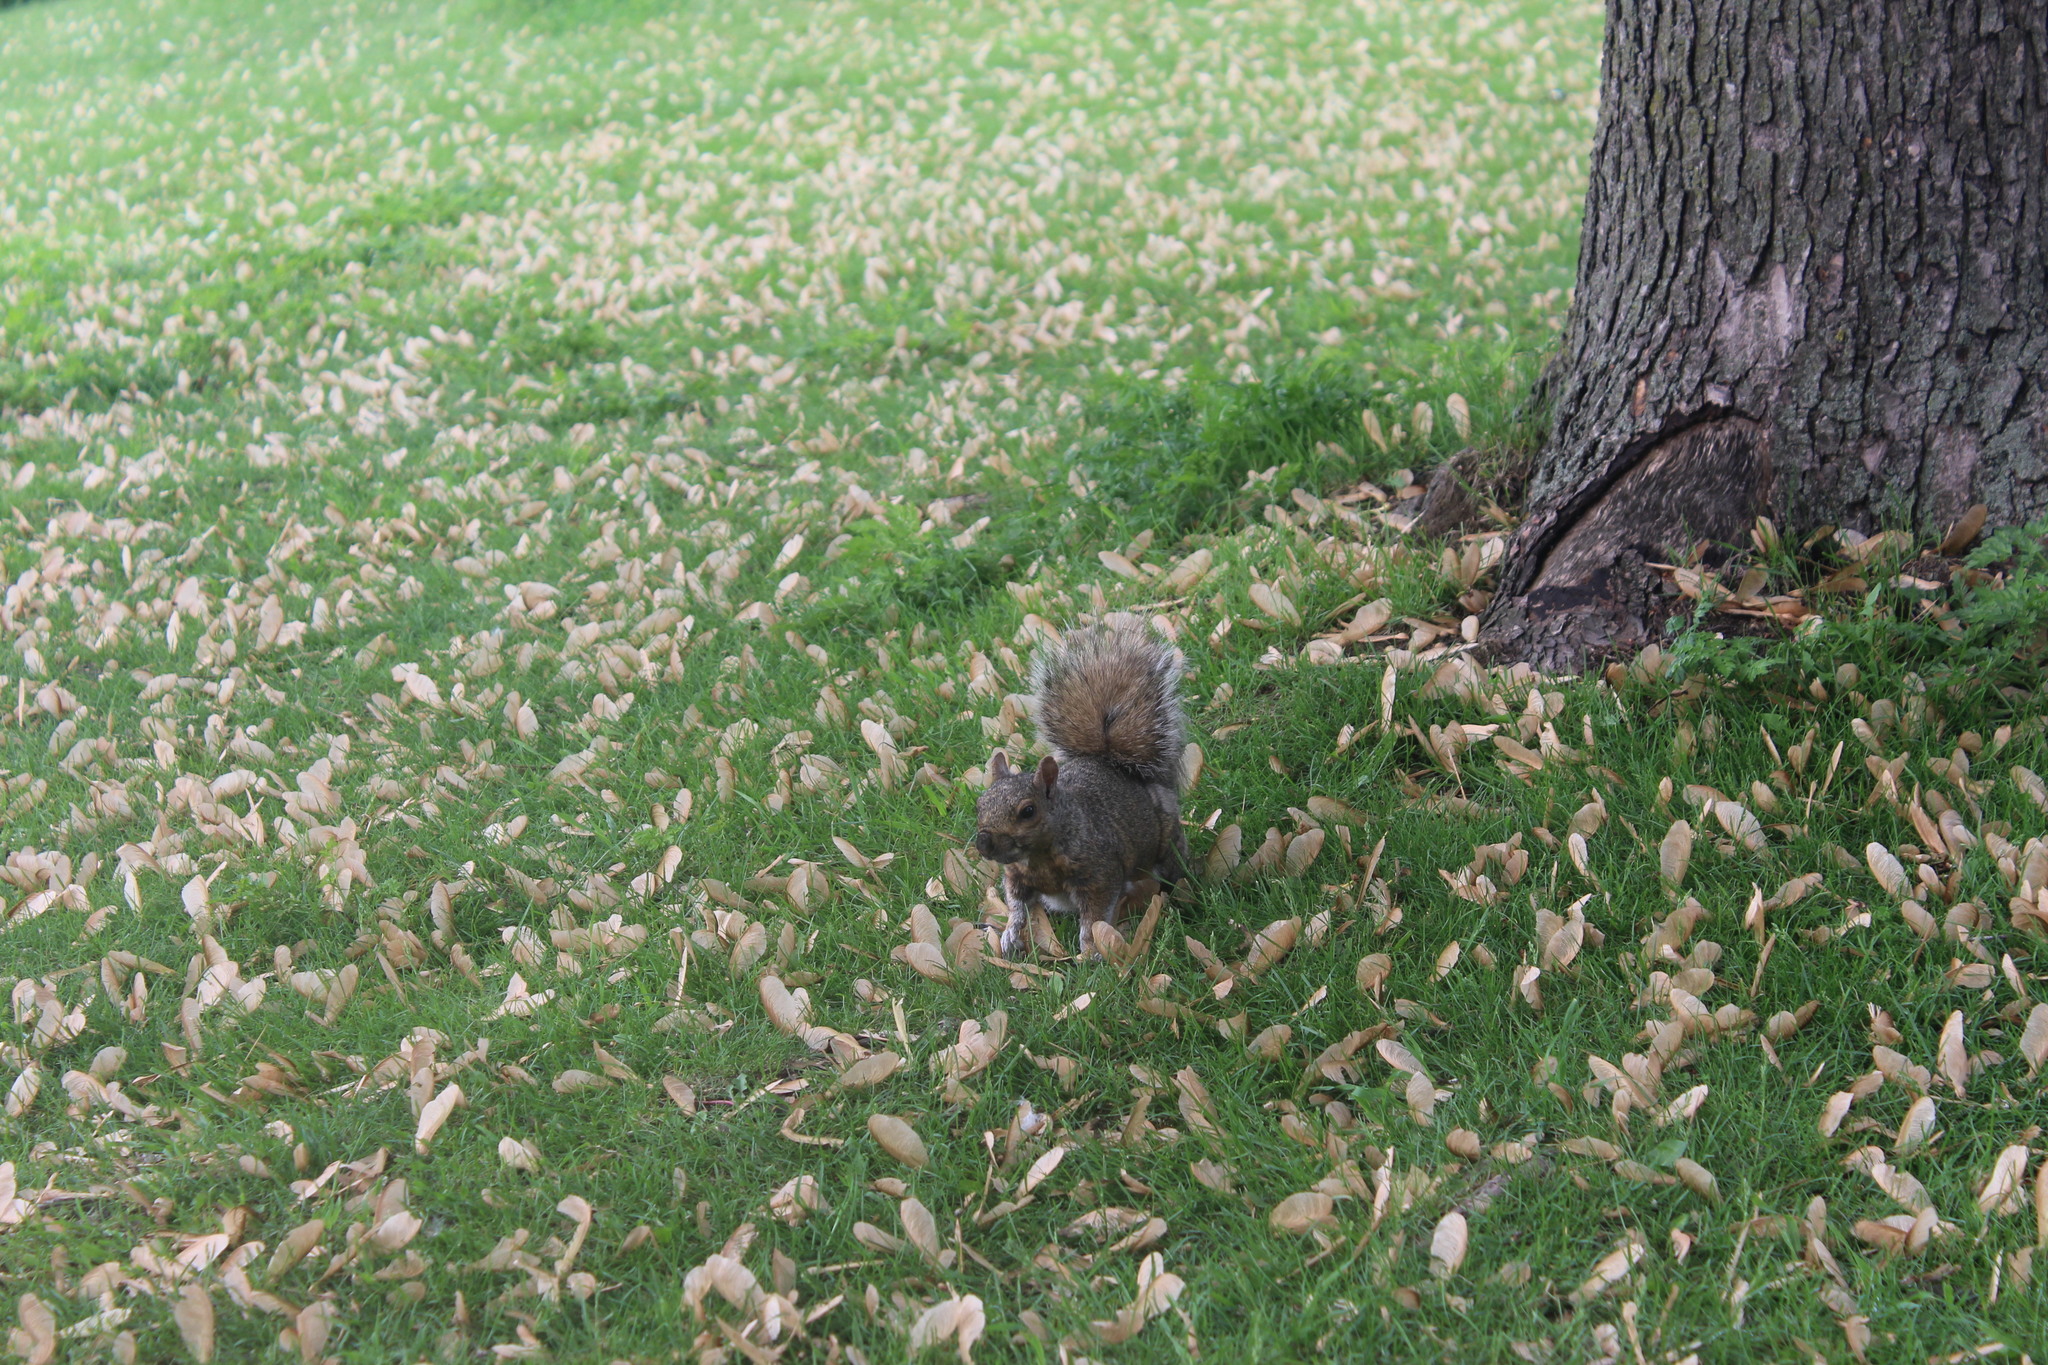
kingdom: Animalia
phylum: Chordata
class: Mammalia
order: Rodentia
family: Sciuridae
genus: Sciurus
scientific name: Sciurus carolinensis
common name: Eastern gray squirrel
